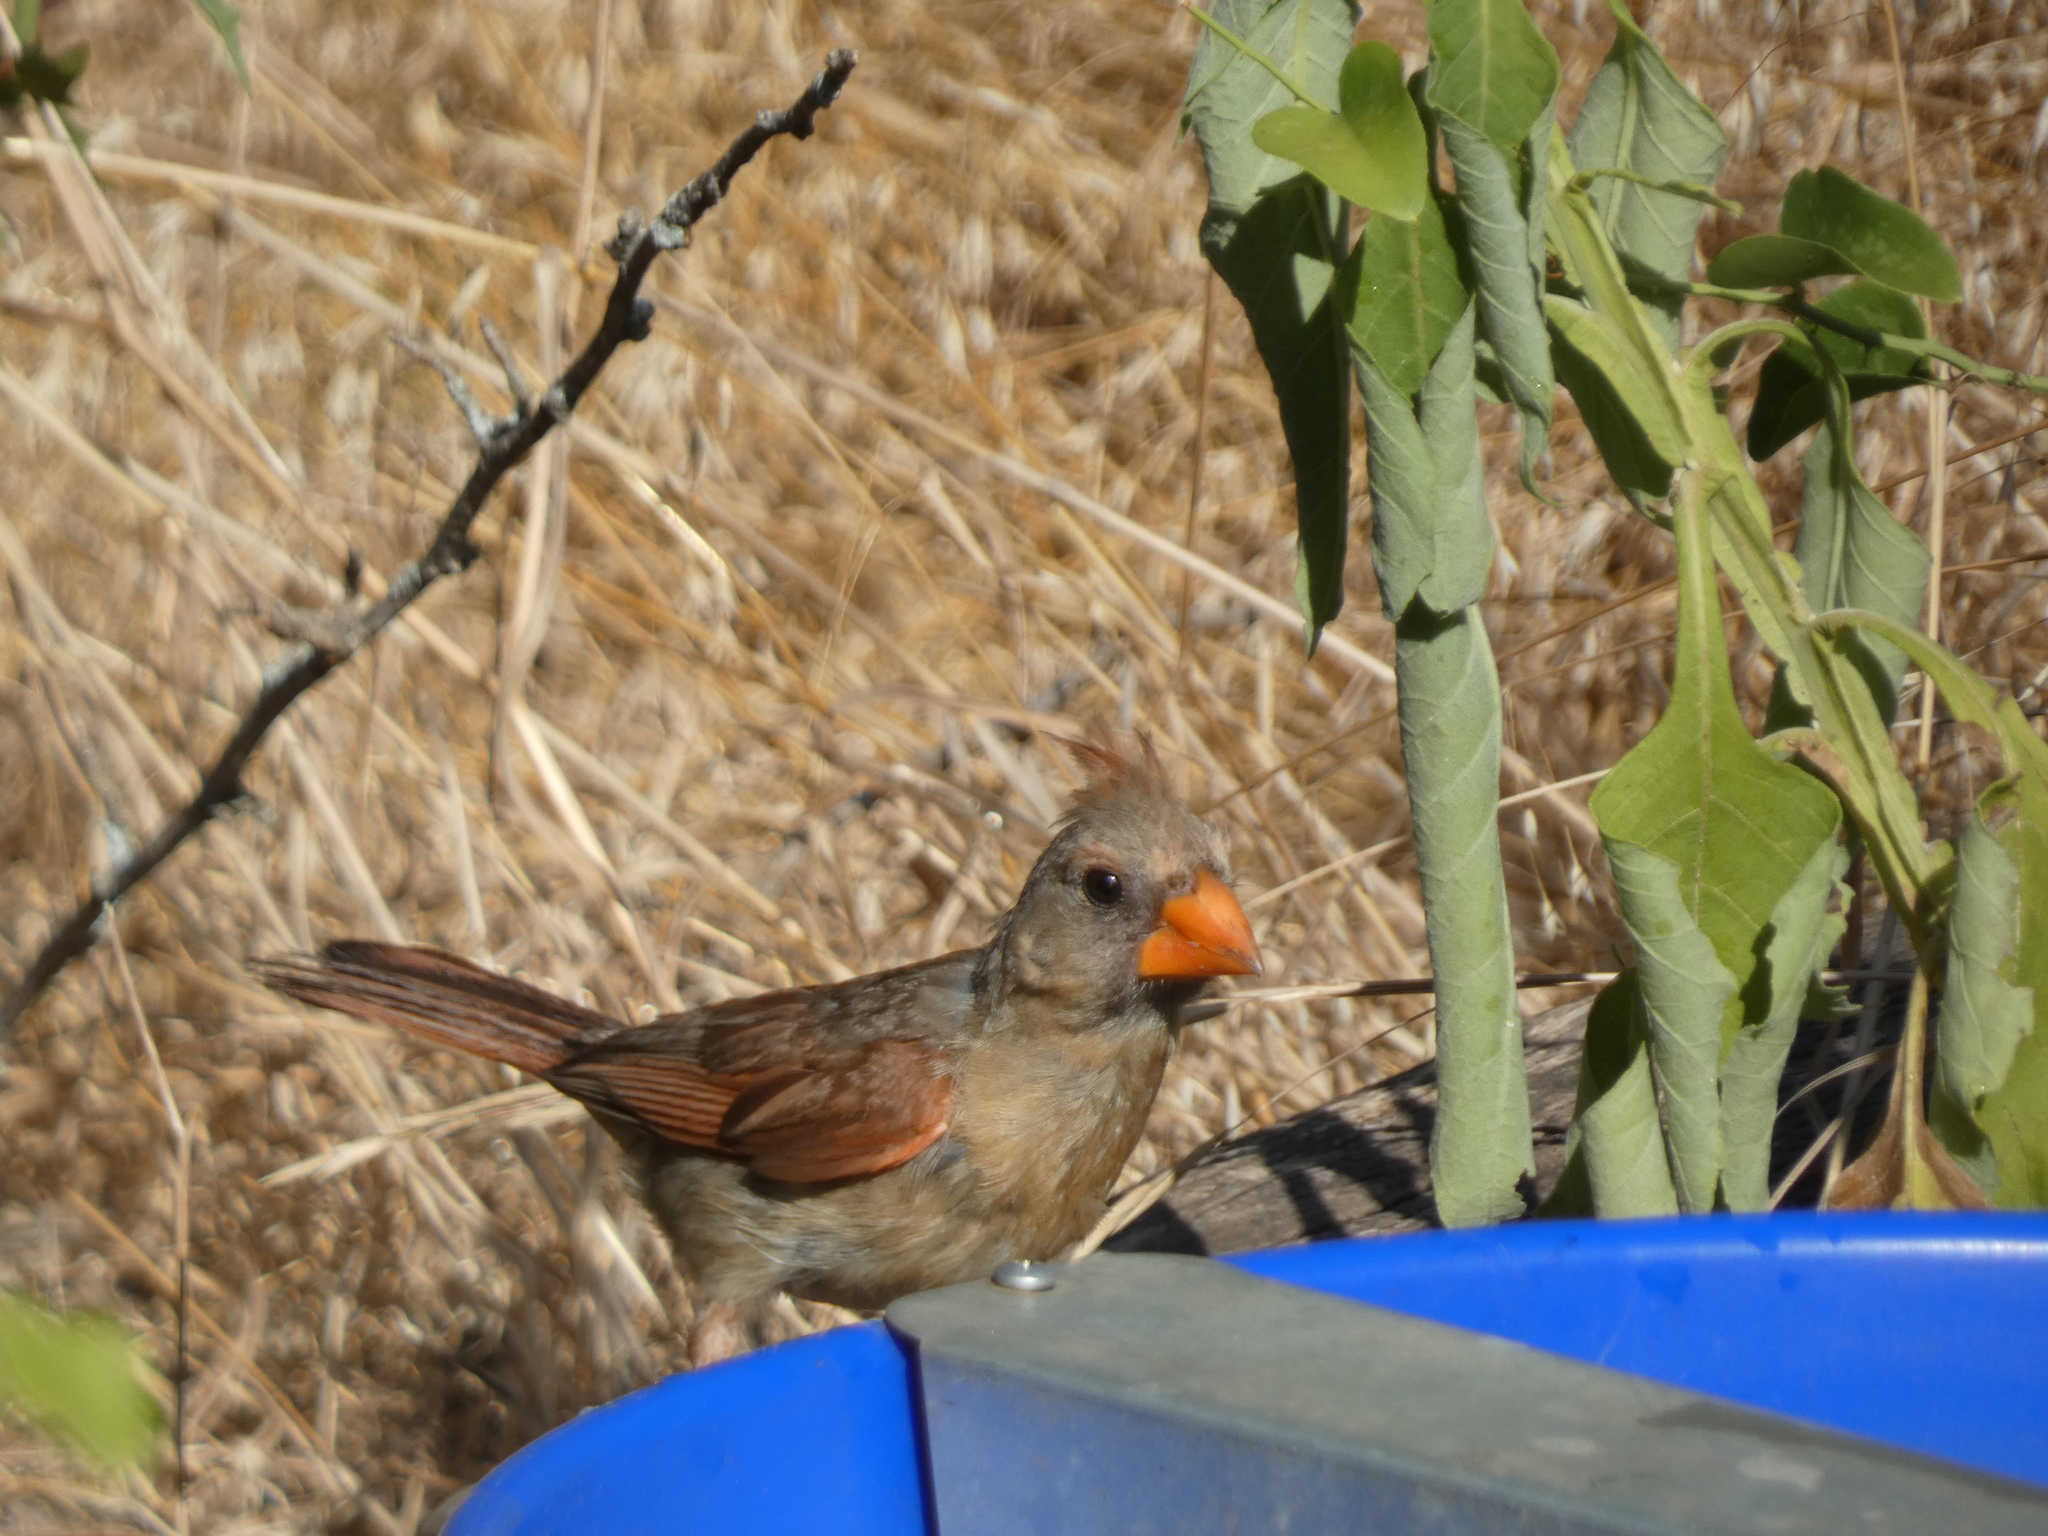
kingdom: Animalia
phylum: Chordata
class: Aves
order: Passeriformes
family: Cardinalidae
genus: Cardinalis
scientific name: Cardinalis cardinalis
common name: Northern cardinal
